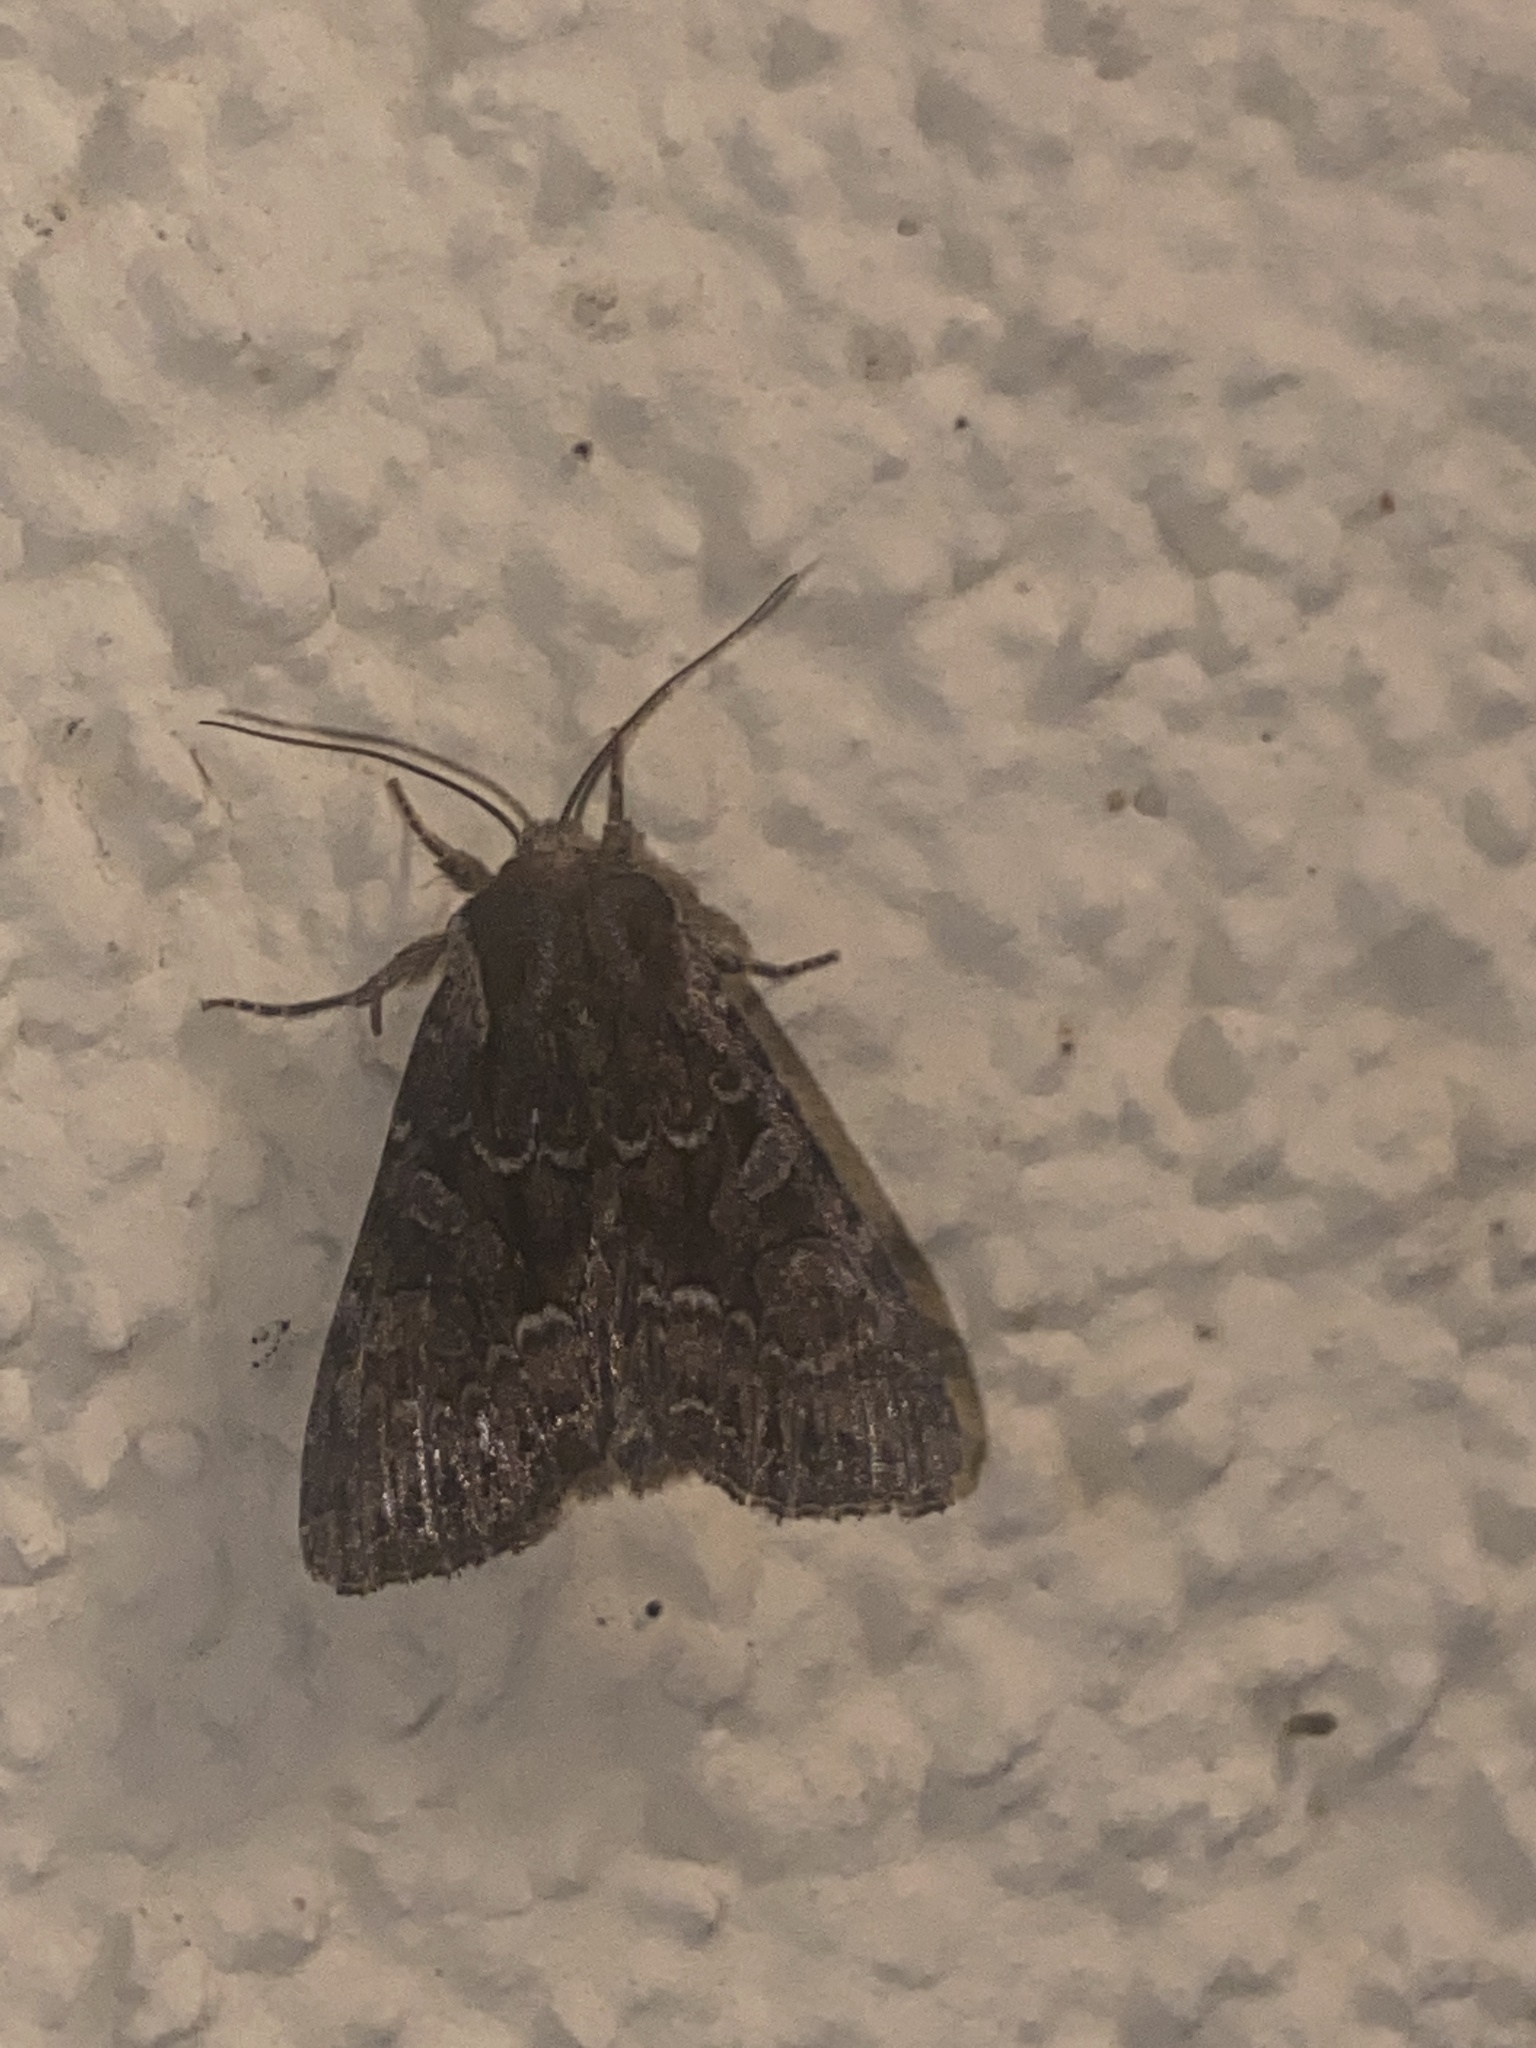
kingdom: Animalia
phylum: Arthropoda
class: Insecta
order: Lepidoptera
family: Noctuidae
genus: Lacanobia
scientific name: Lacanobia thalassina
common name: Pale-shouldered brocade
